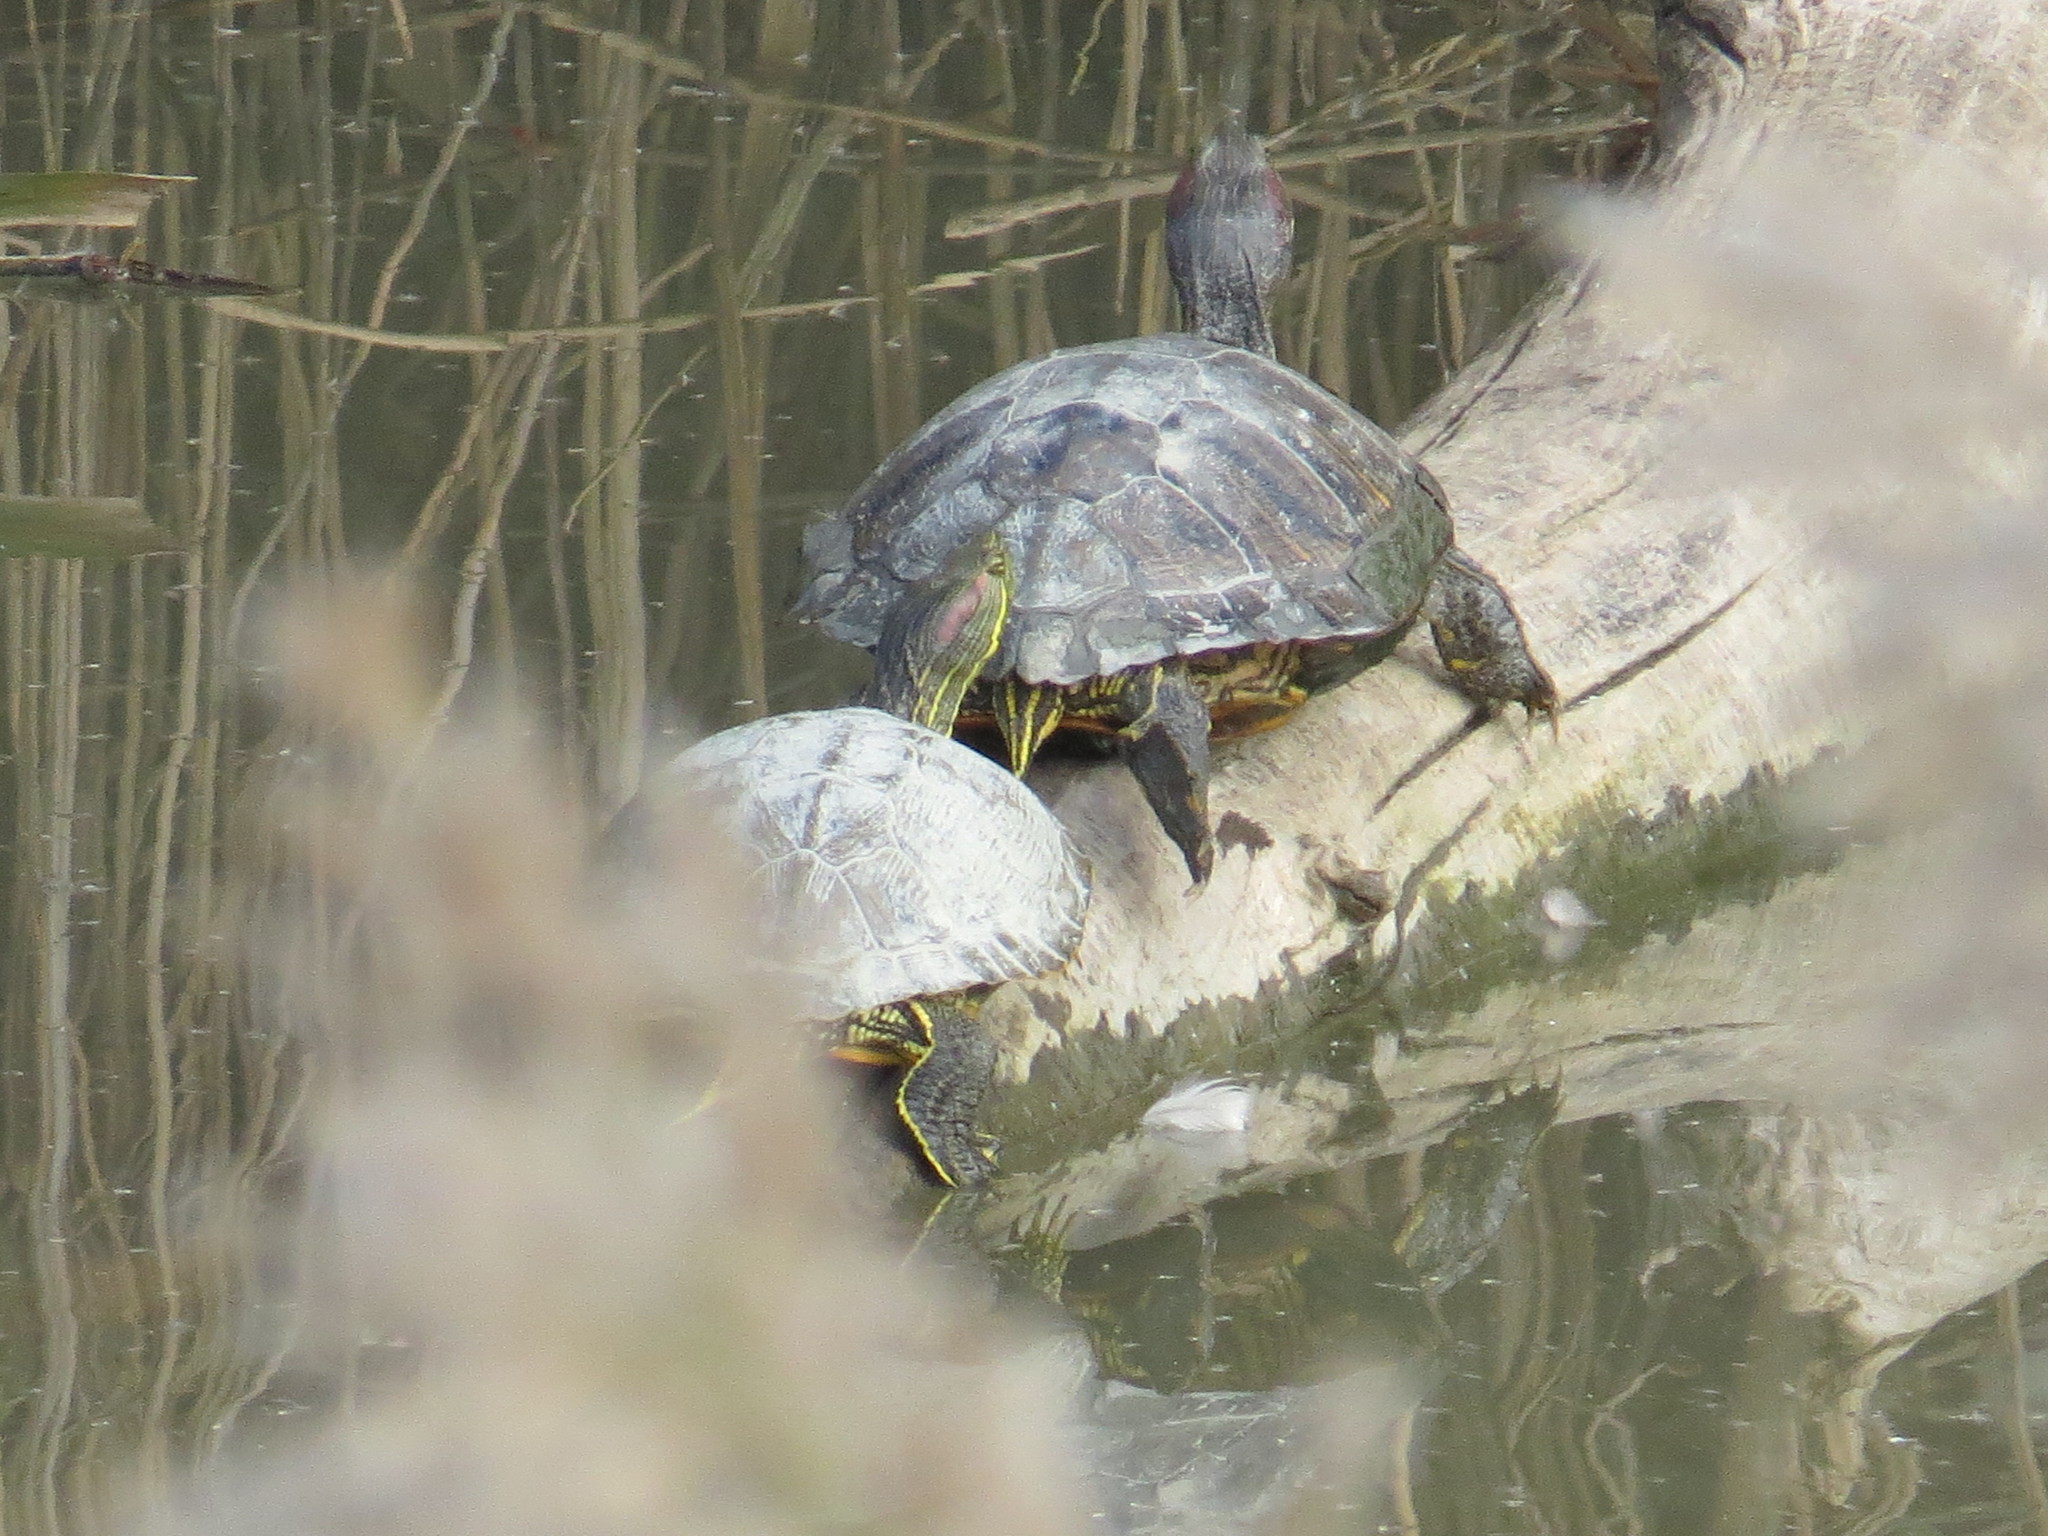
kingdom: Animalia
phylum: Chordata
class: Testudines
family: Emydidae
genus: Trachemys
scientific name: Trachemys scripta
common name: Slider
